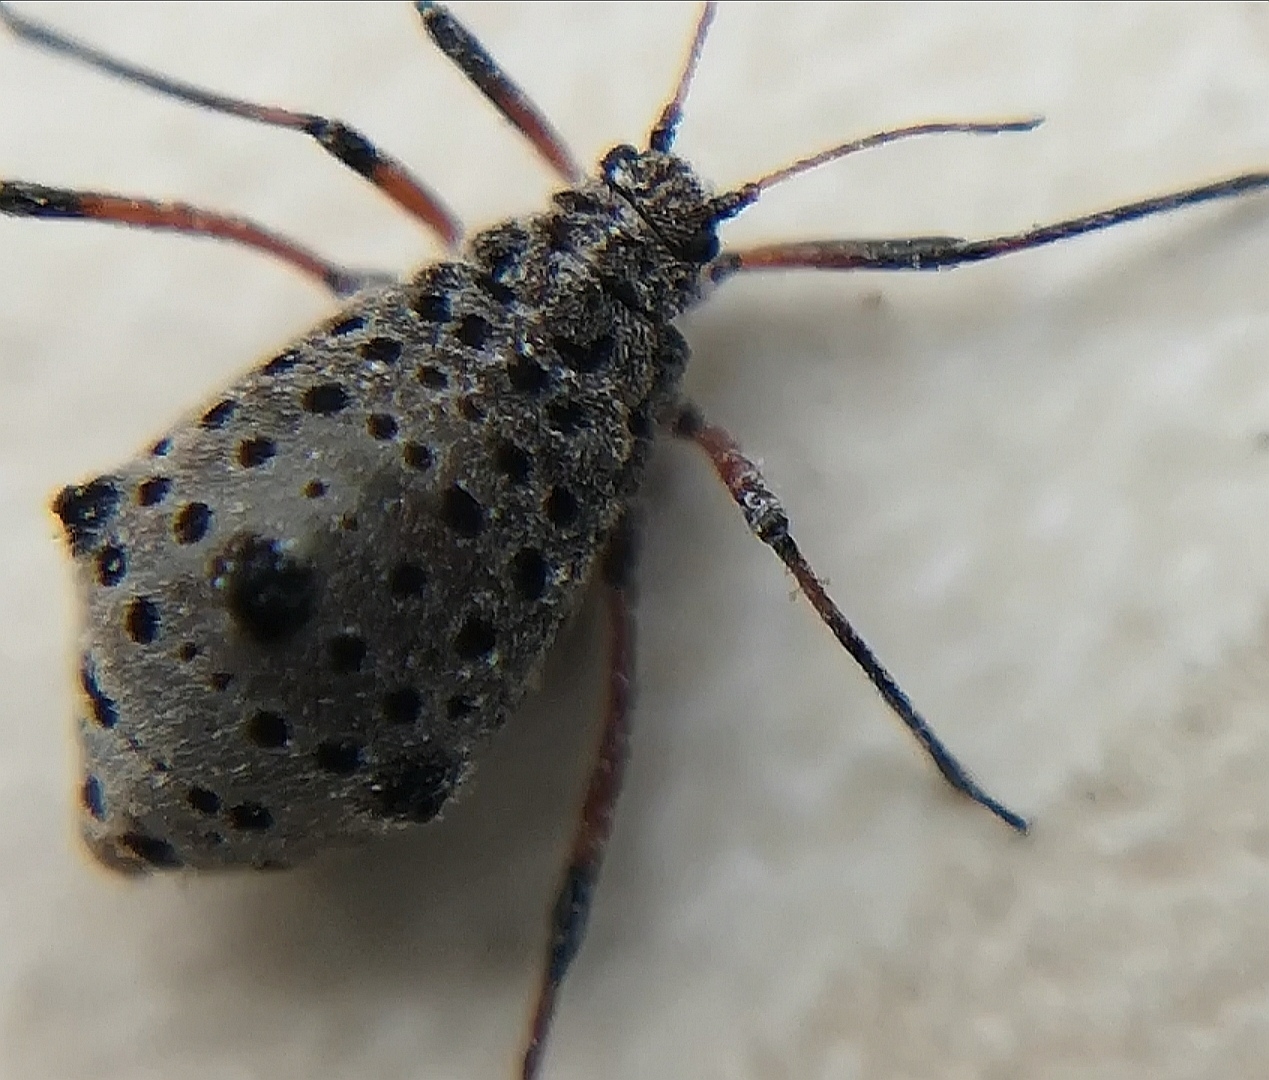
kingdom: Animalia
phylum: Arthropoda
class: Insecta
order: Hemiptera
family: Aphididae
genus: Tuberolachnus
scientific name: Tuberolachnus salignus
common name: Giant willow aphid
